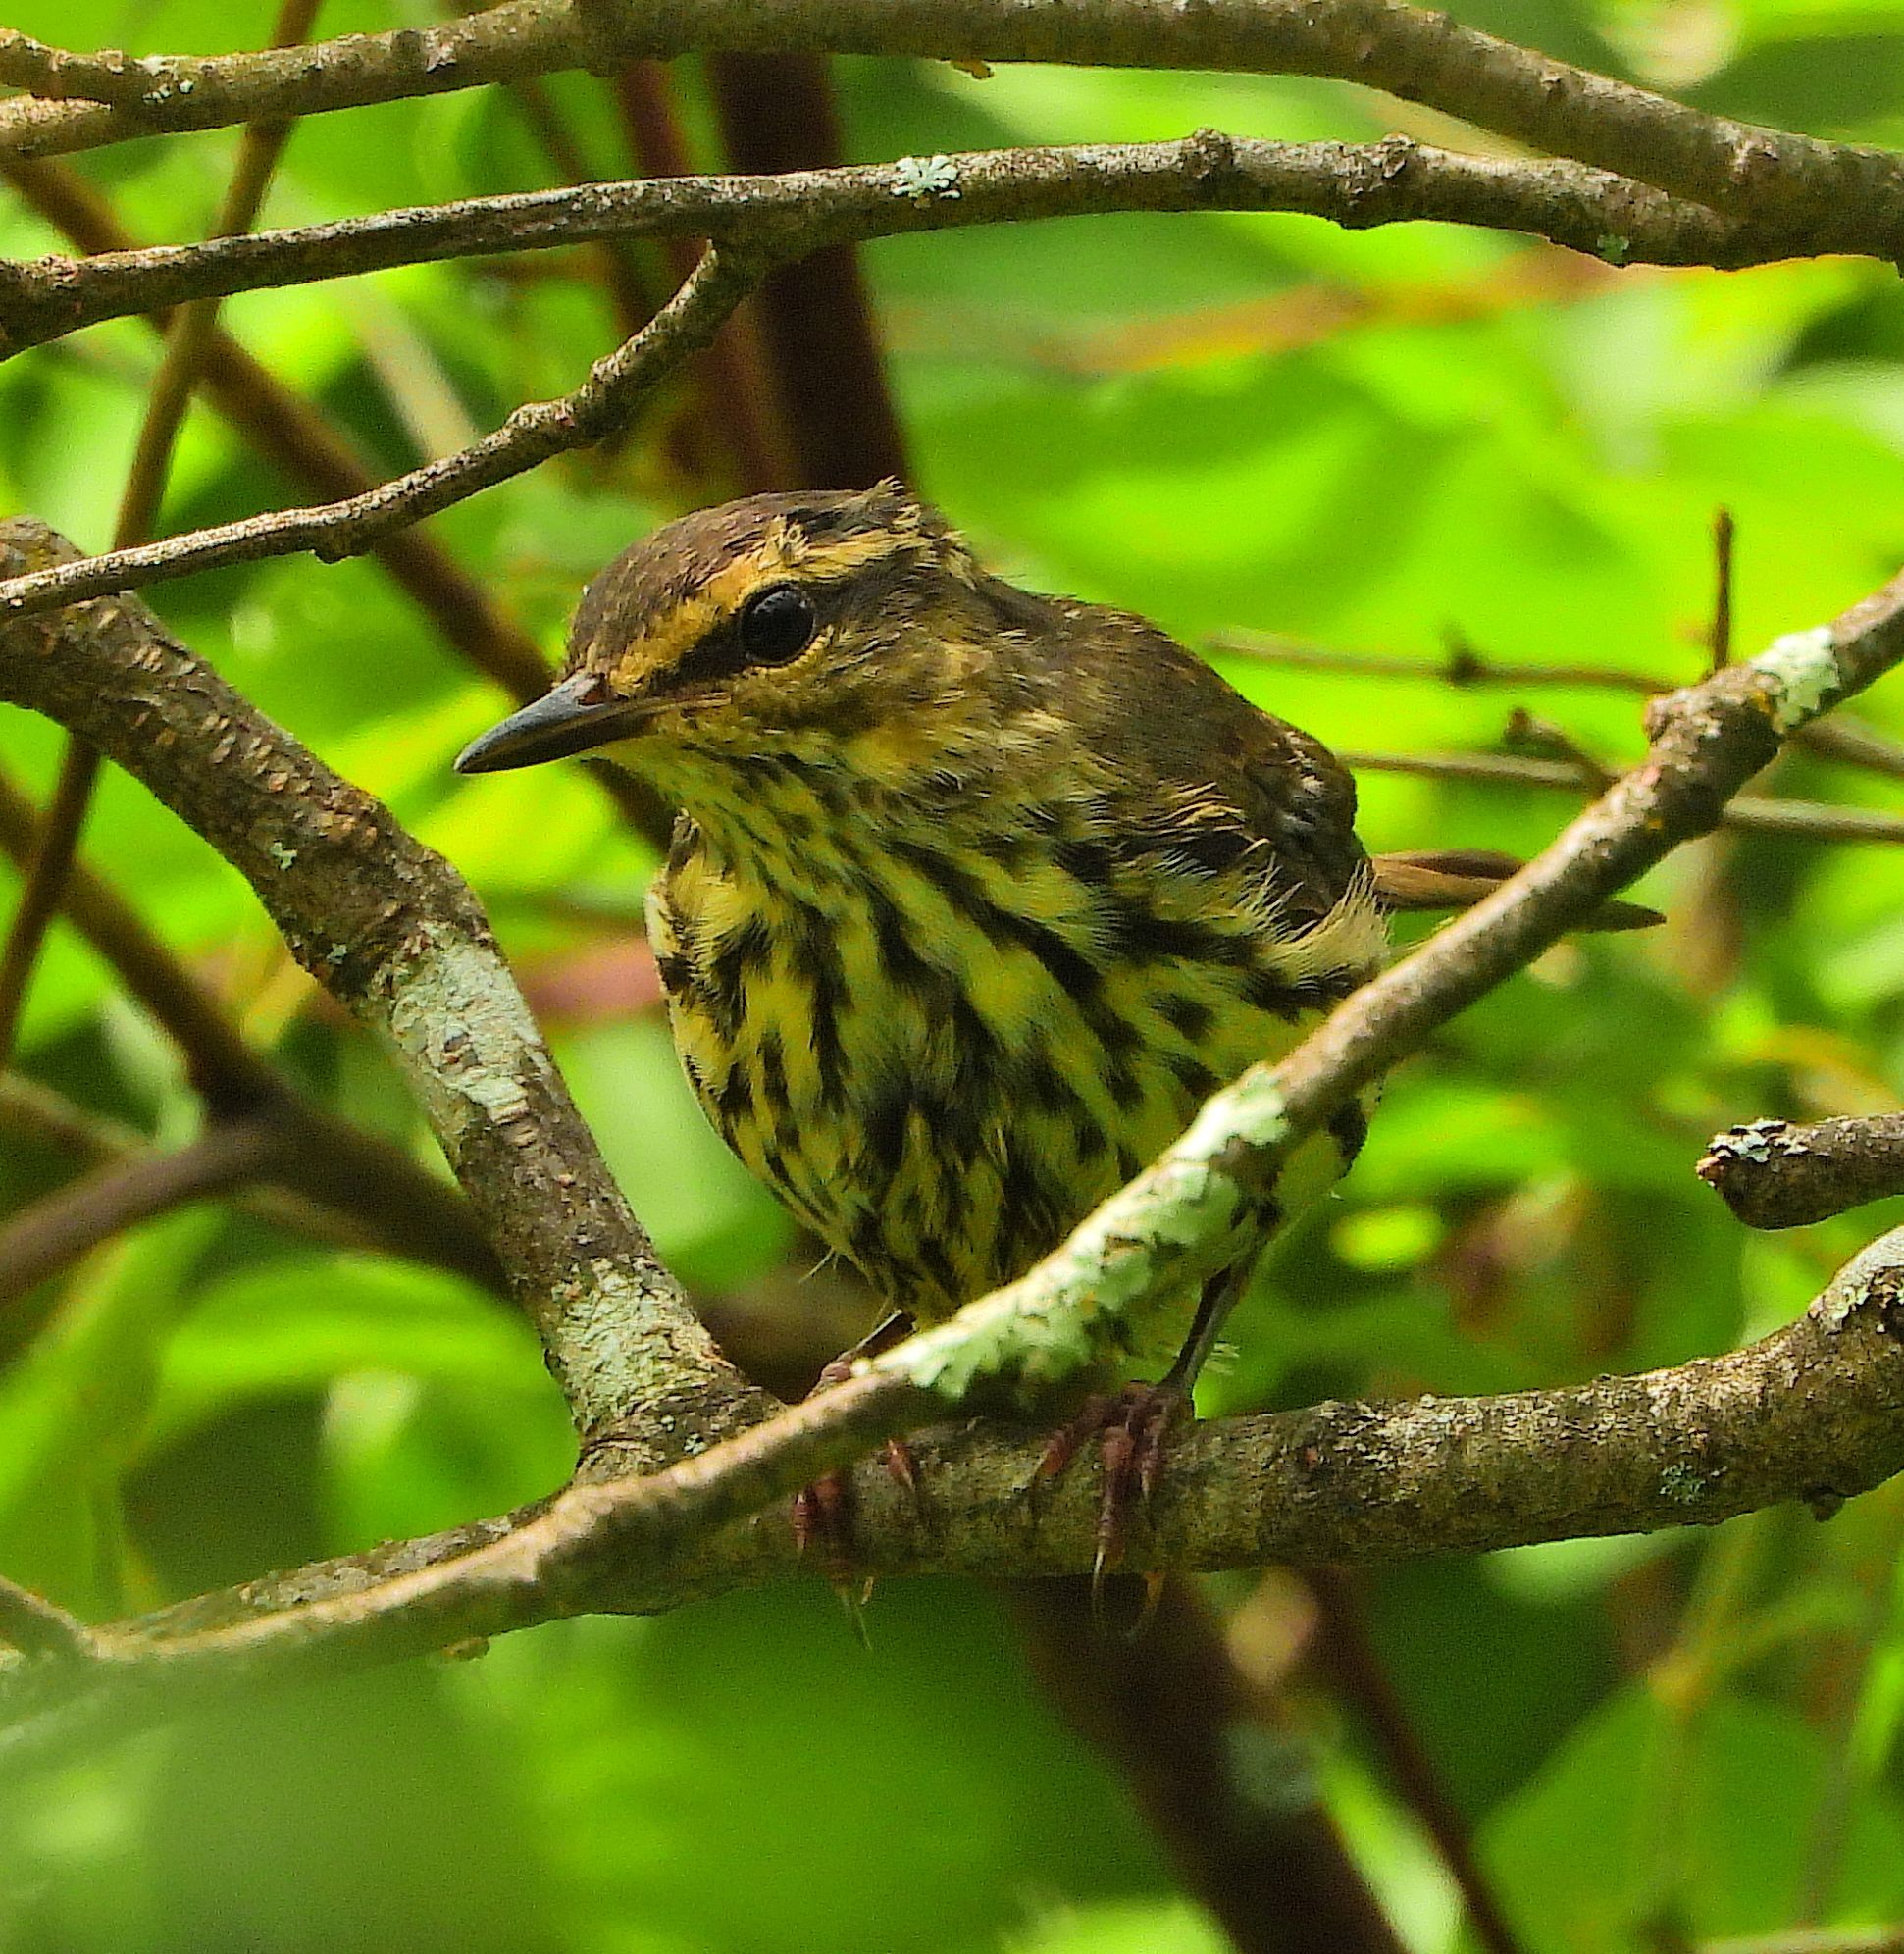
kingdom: Animalia
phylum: Chordata
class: Aves
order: Passeriformes
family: Parulidae
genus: Parkesia
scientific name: Parkesia noveboracensis
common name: Northern waterthrush
